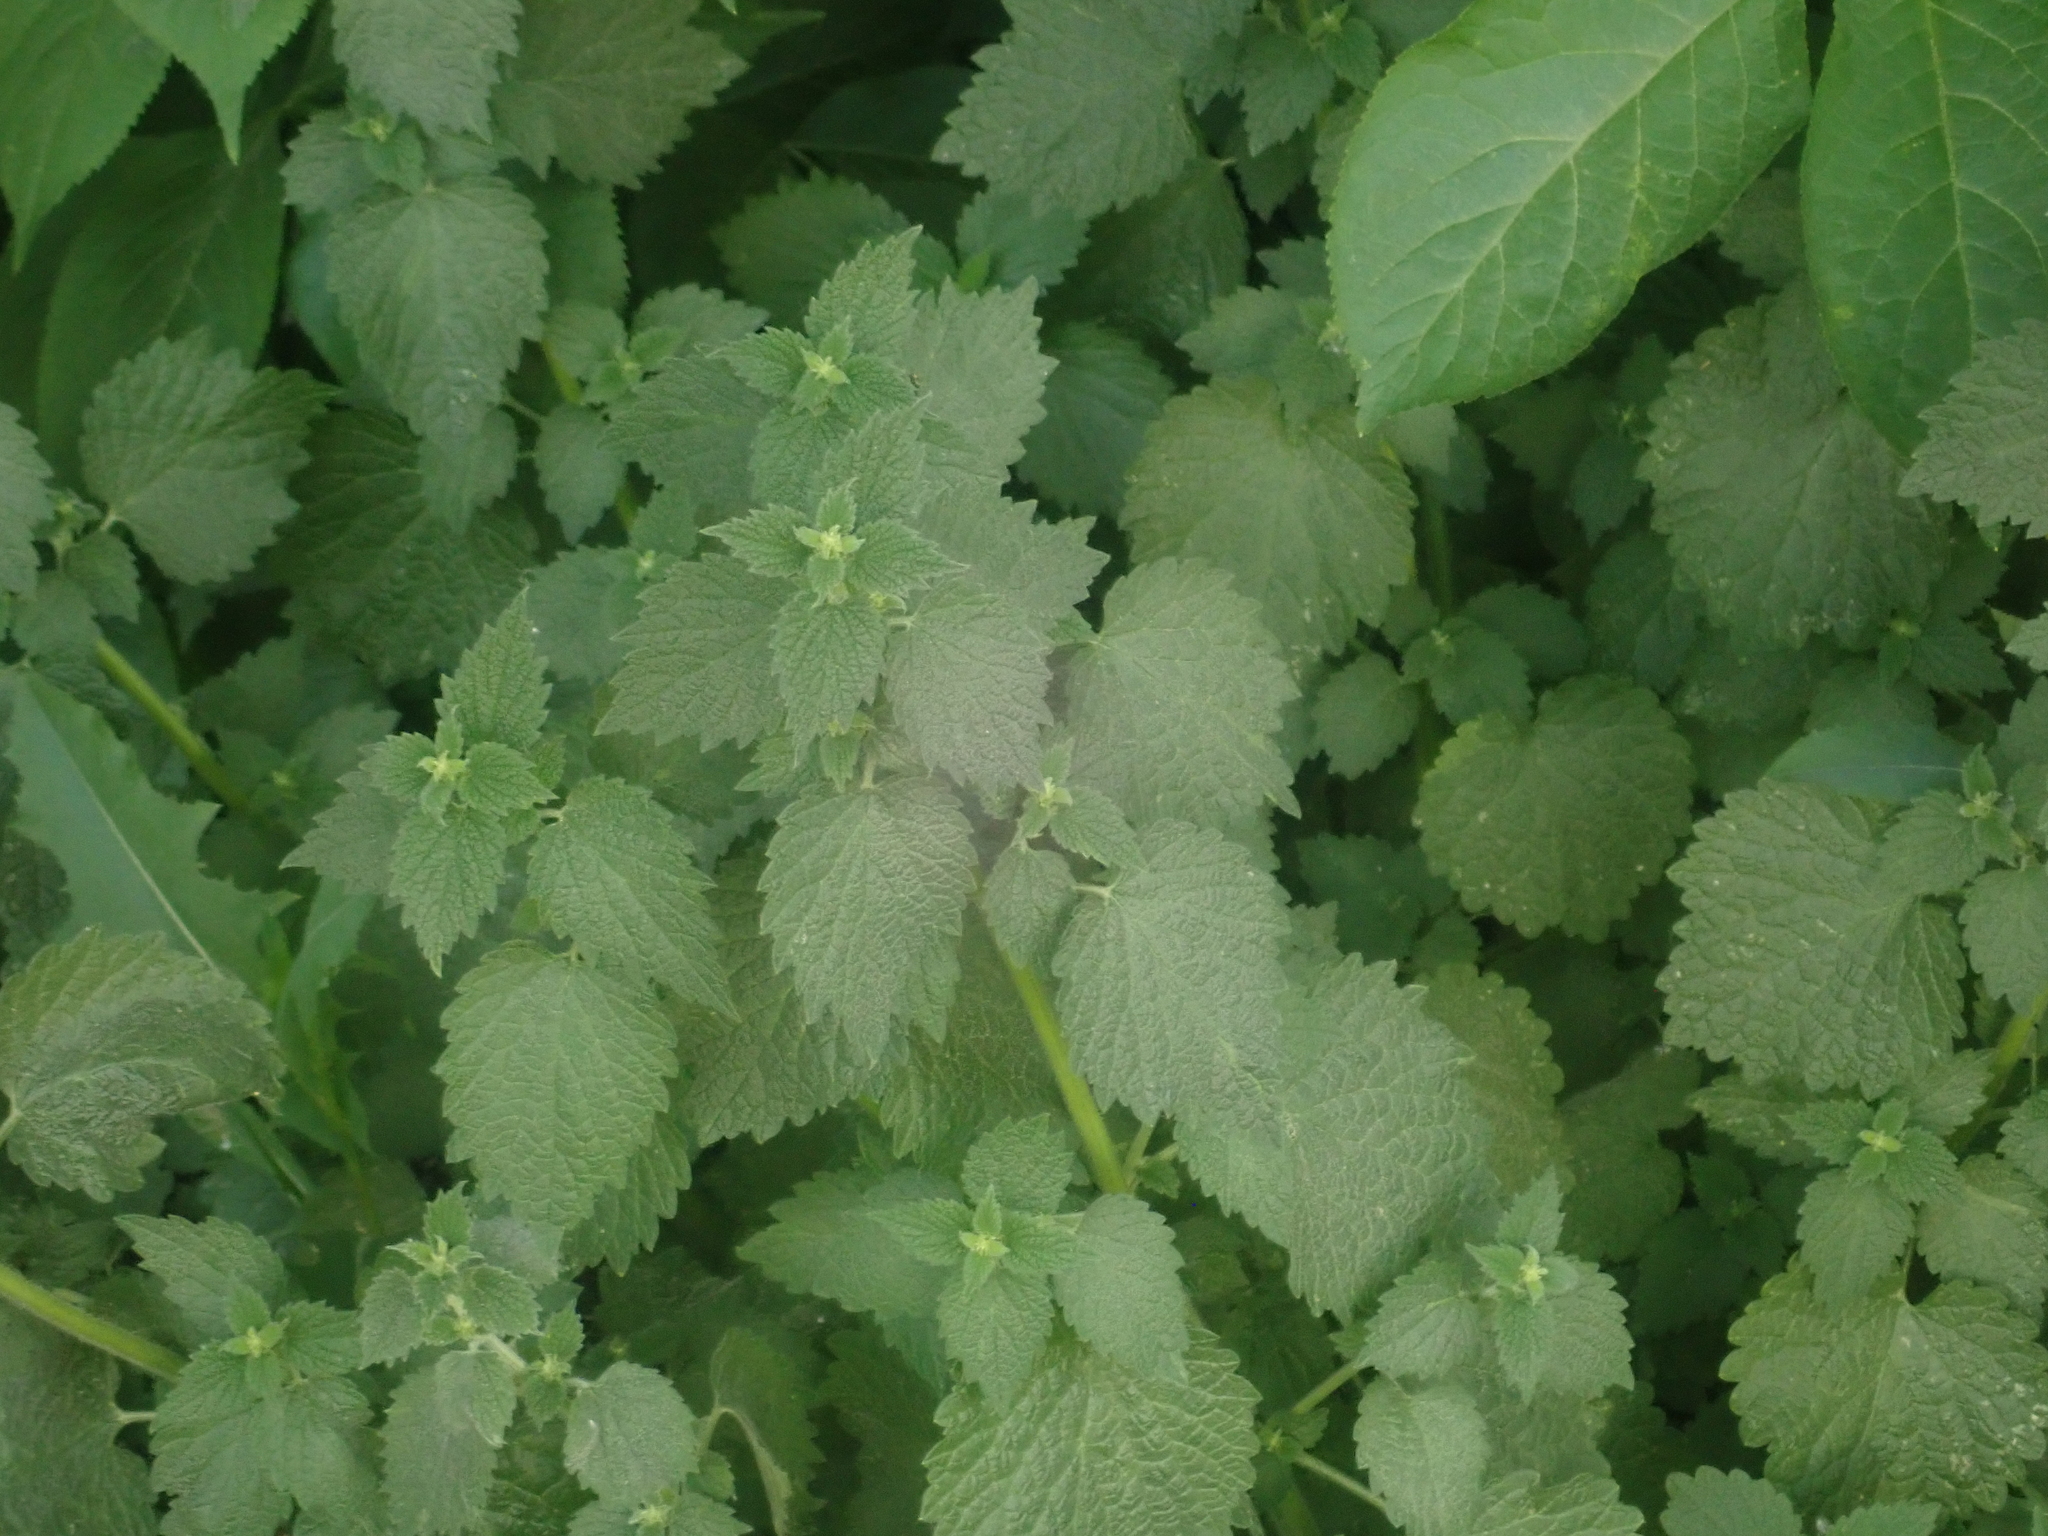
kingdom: Plantae
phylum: Tracheophyta
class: Magnoliopsida
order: Lamiales
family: Lamiaceae
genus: Ballota
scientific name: Ballota nigra
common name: Black horehound
